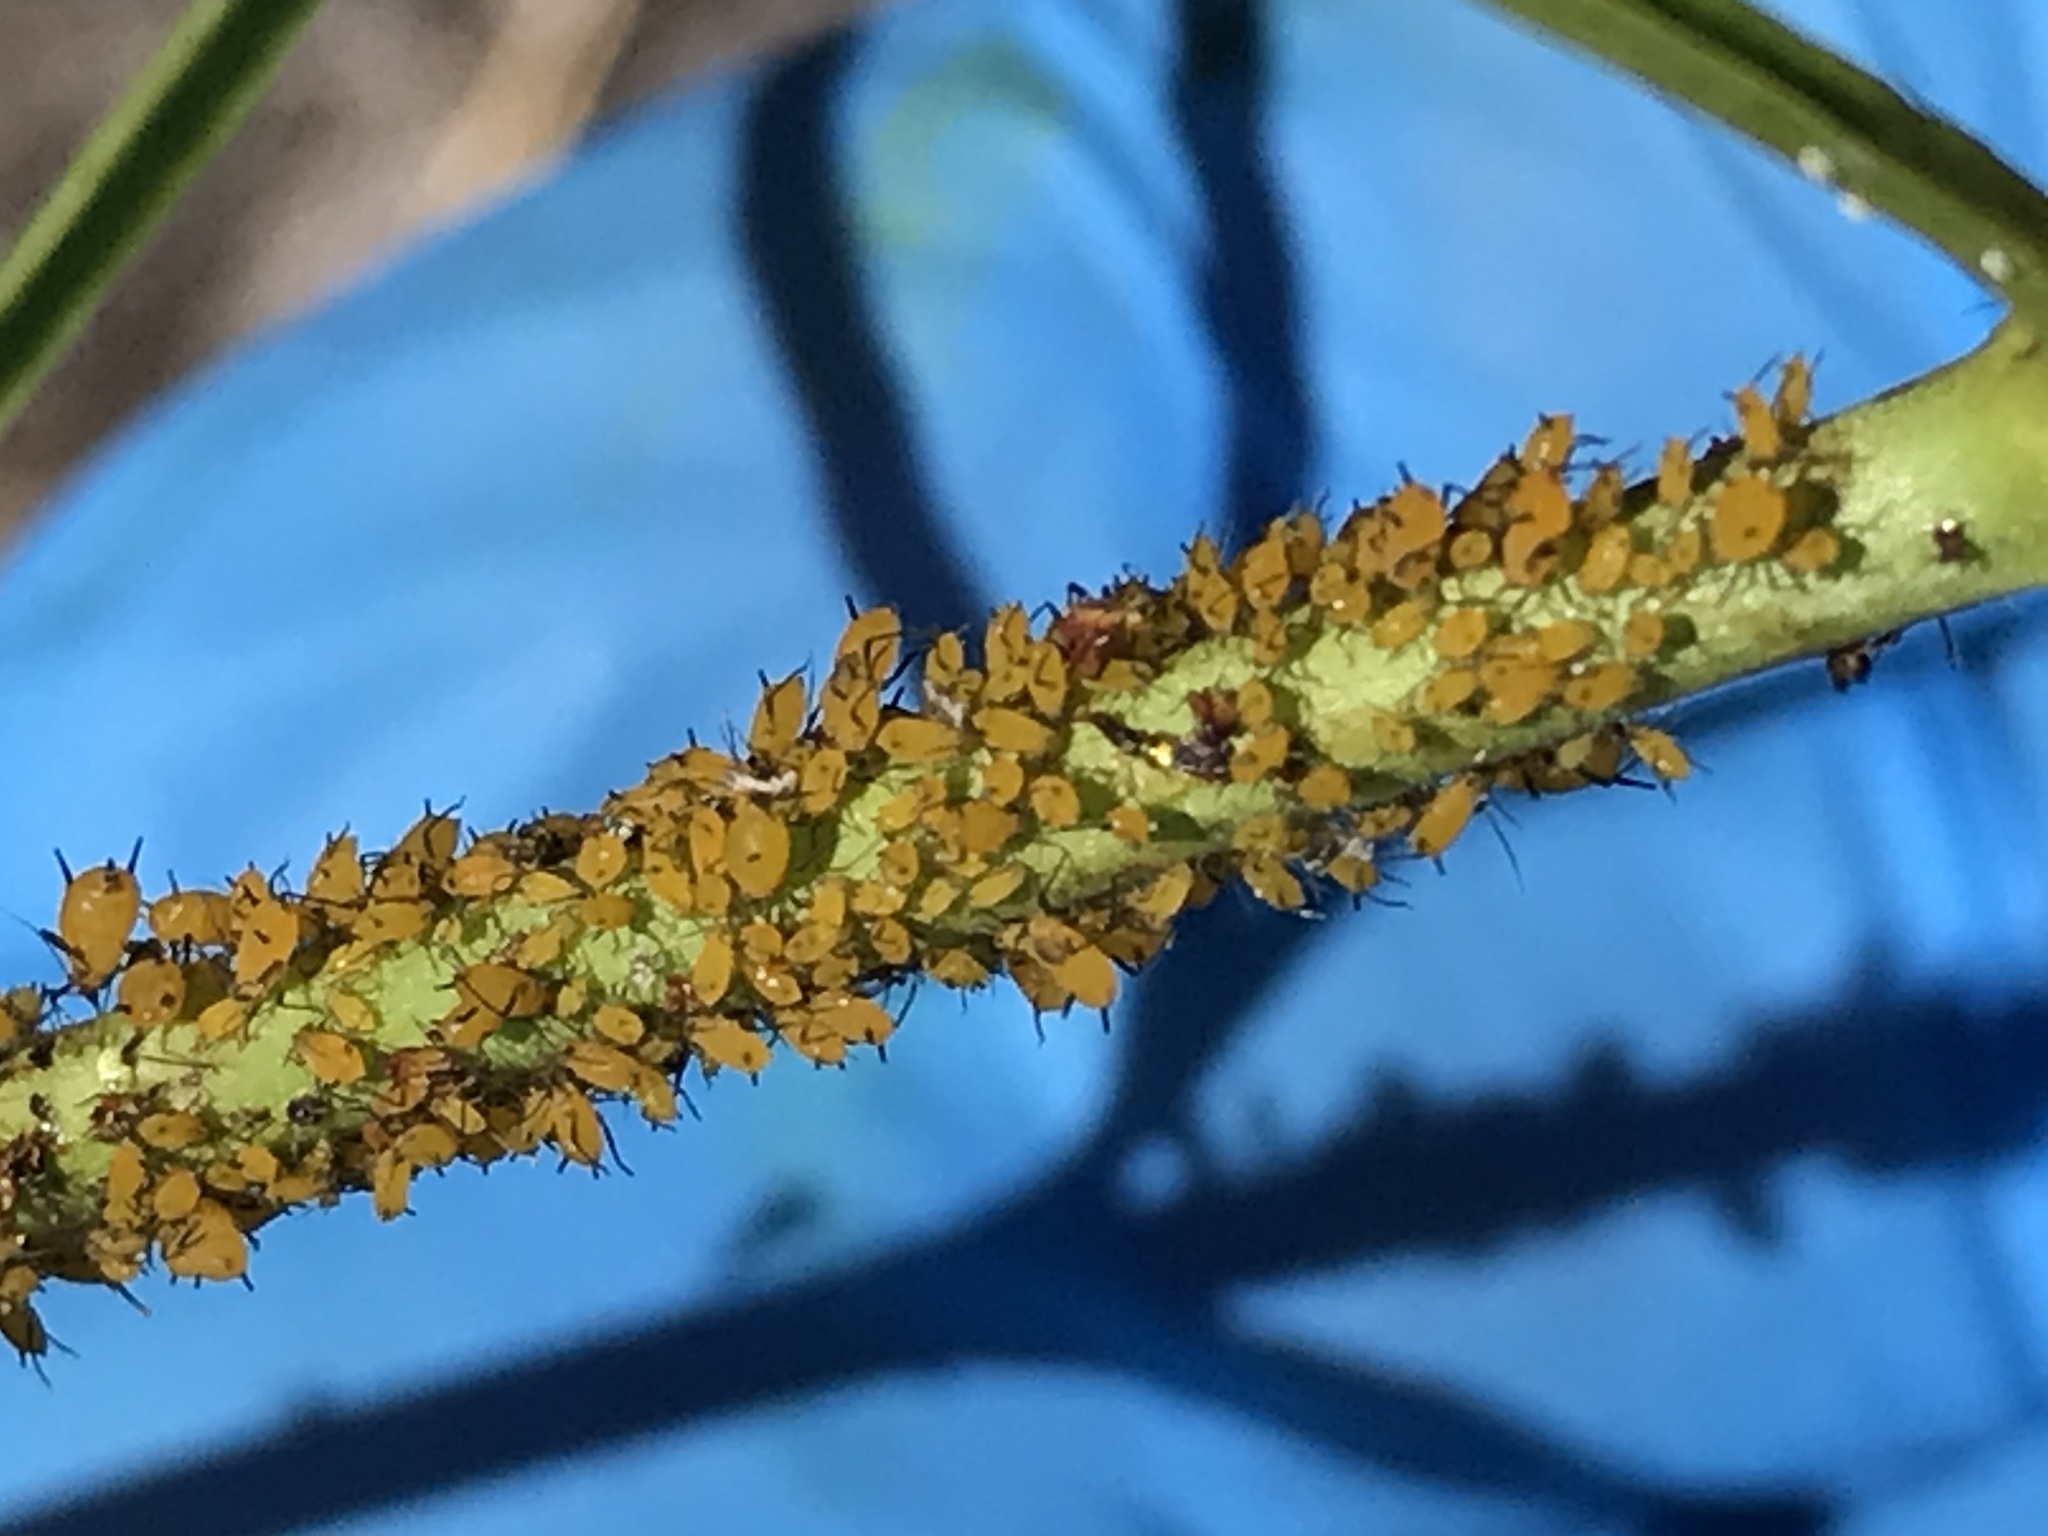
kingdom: Animalia
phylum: Arthropoda
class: Insecta
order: Hemiptera
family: Aphididae
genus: Aphis
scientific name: Aphis nerii
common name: Oleander aphid
